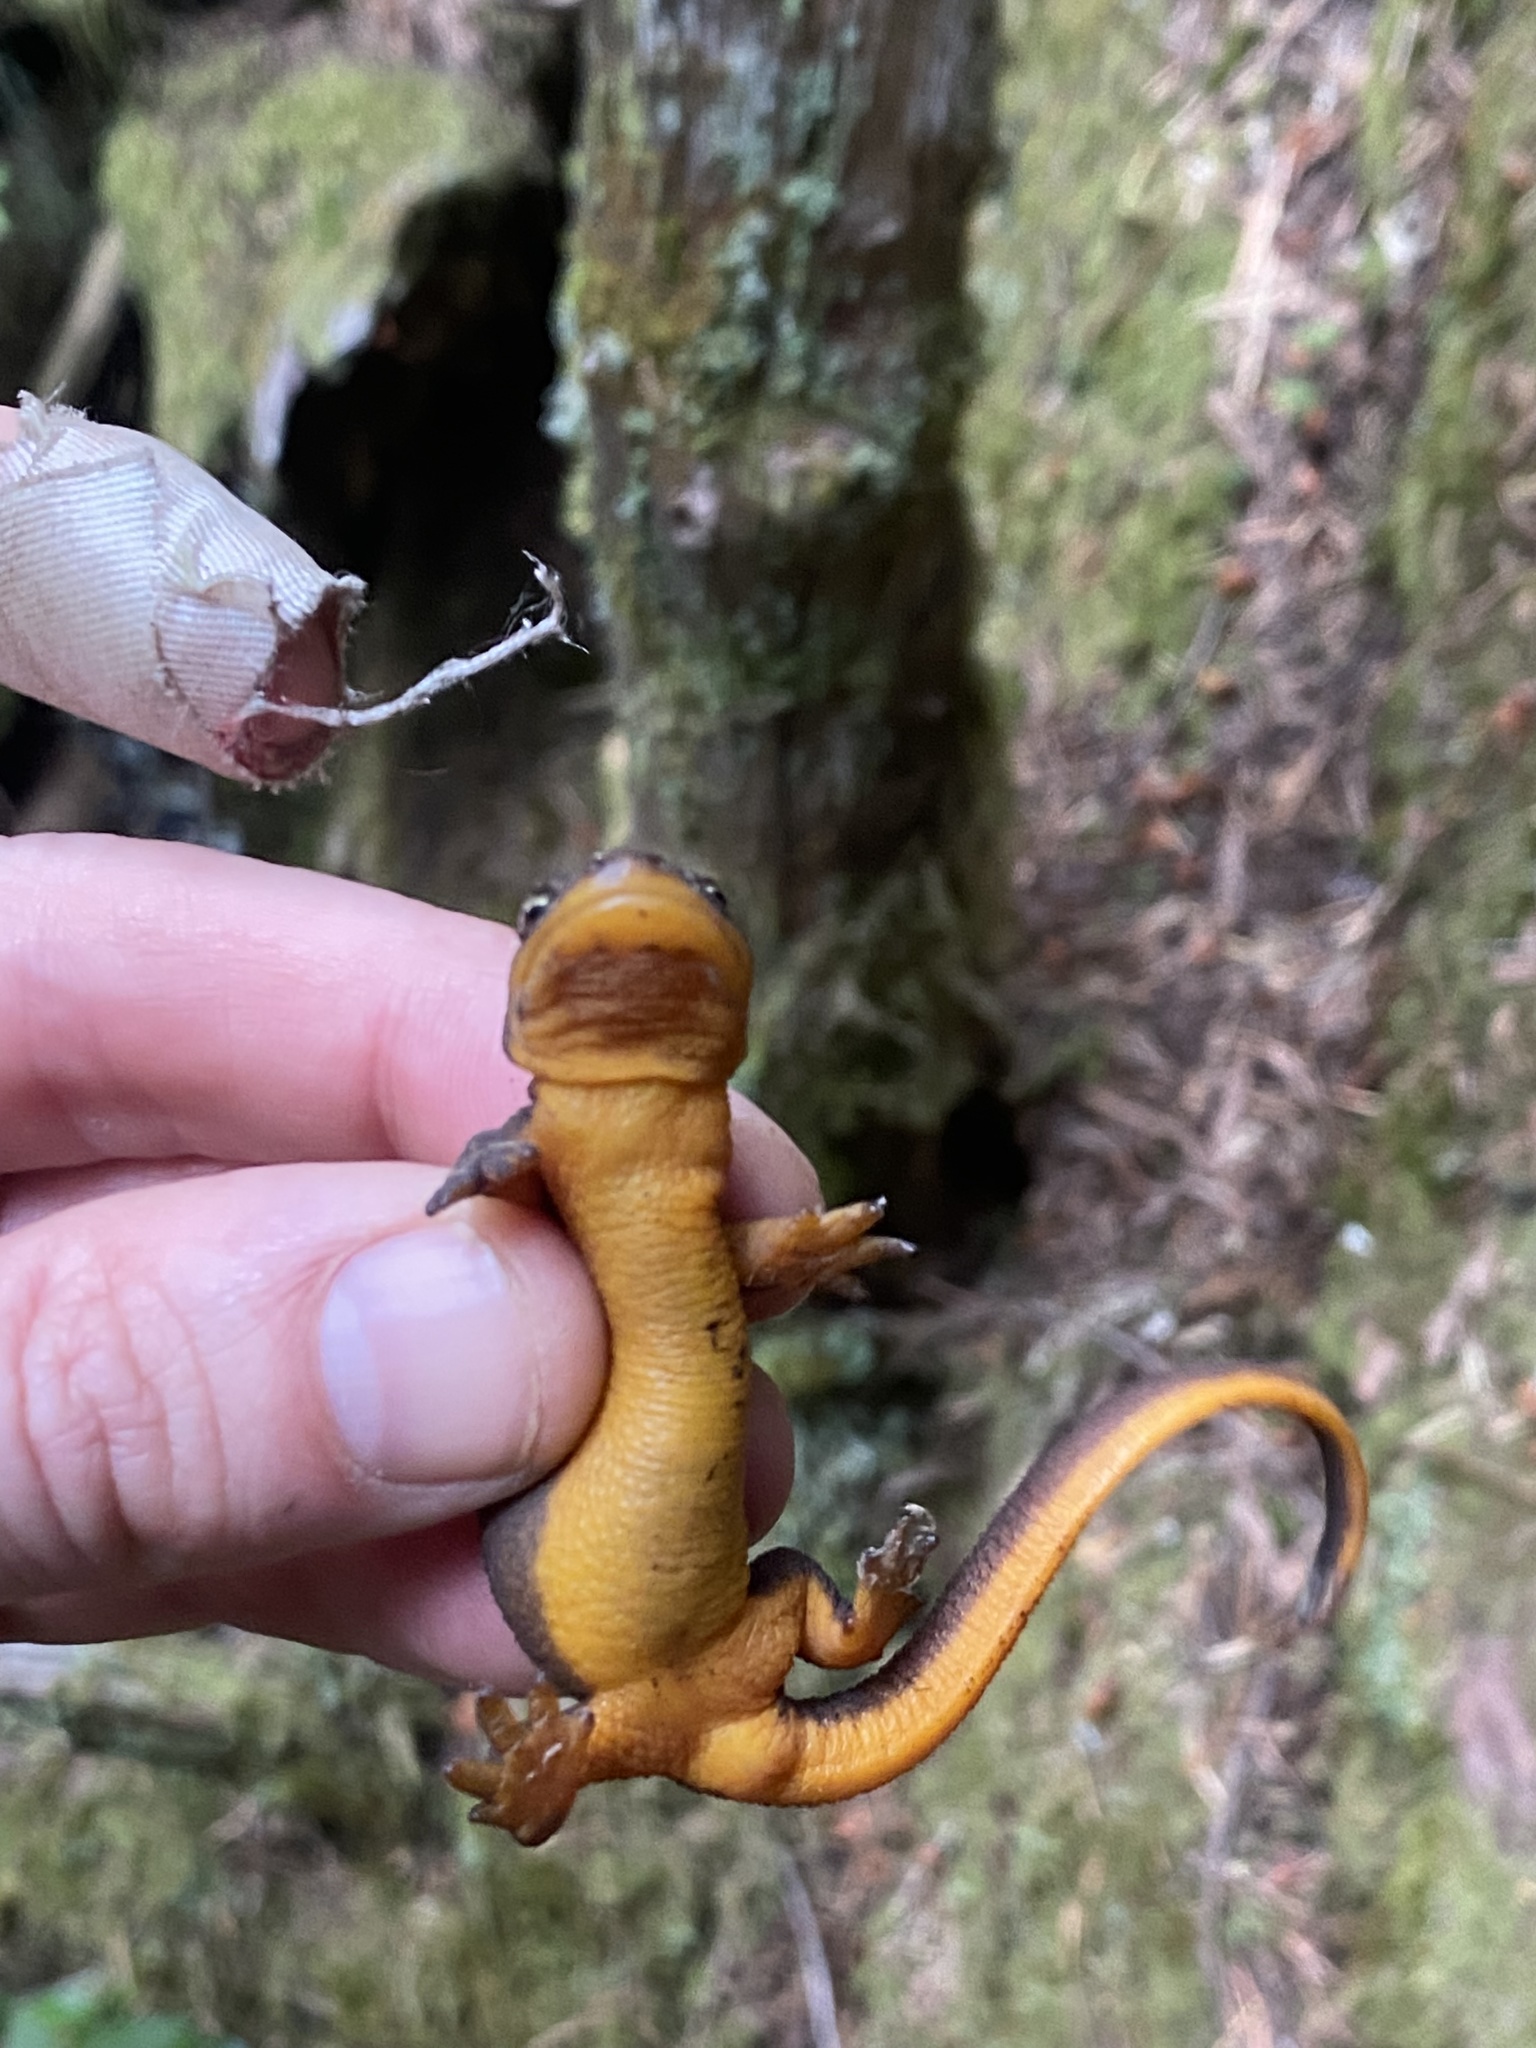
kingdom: Animalia
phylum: Chordata
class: Amphibia
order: Caudata
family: Salamandridae
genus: Taricha
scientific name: Taricha granulosa
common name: Roughskin newt
